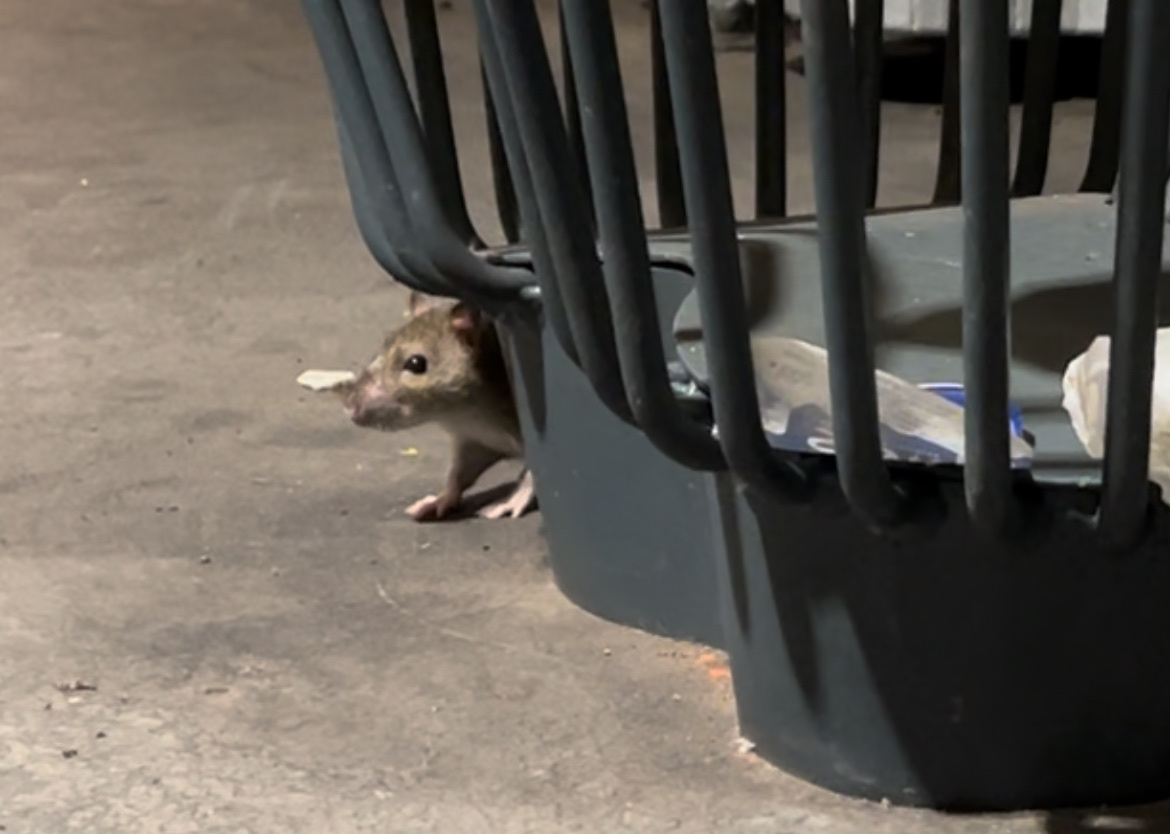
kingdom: Animalia
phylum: Chordata
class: Mammalia
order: Rodentia
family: Muridae
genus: Rattus
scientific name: Rattus norvegicus
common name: Brown rat
